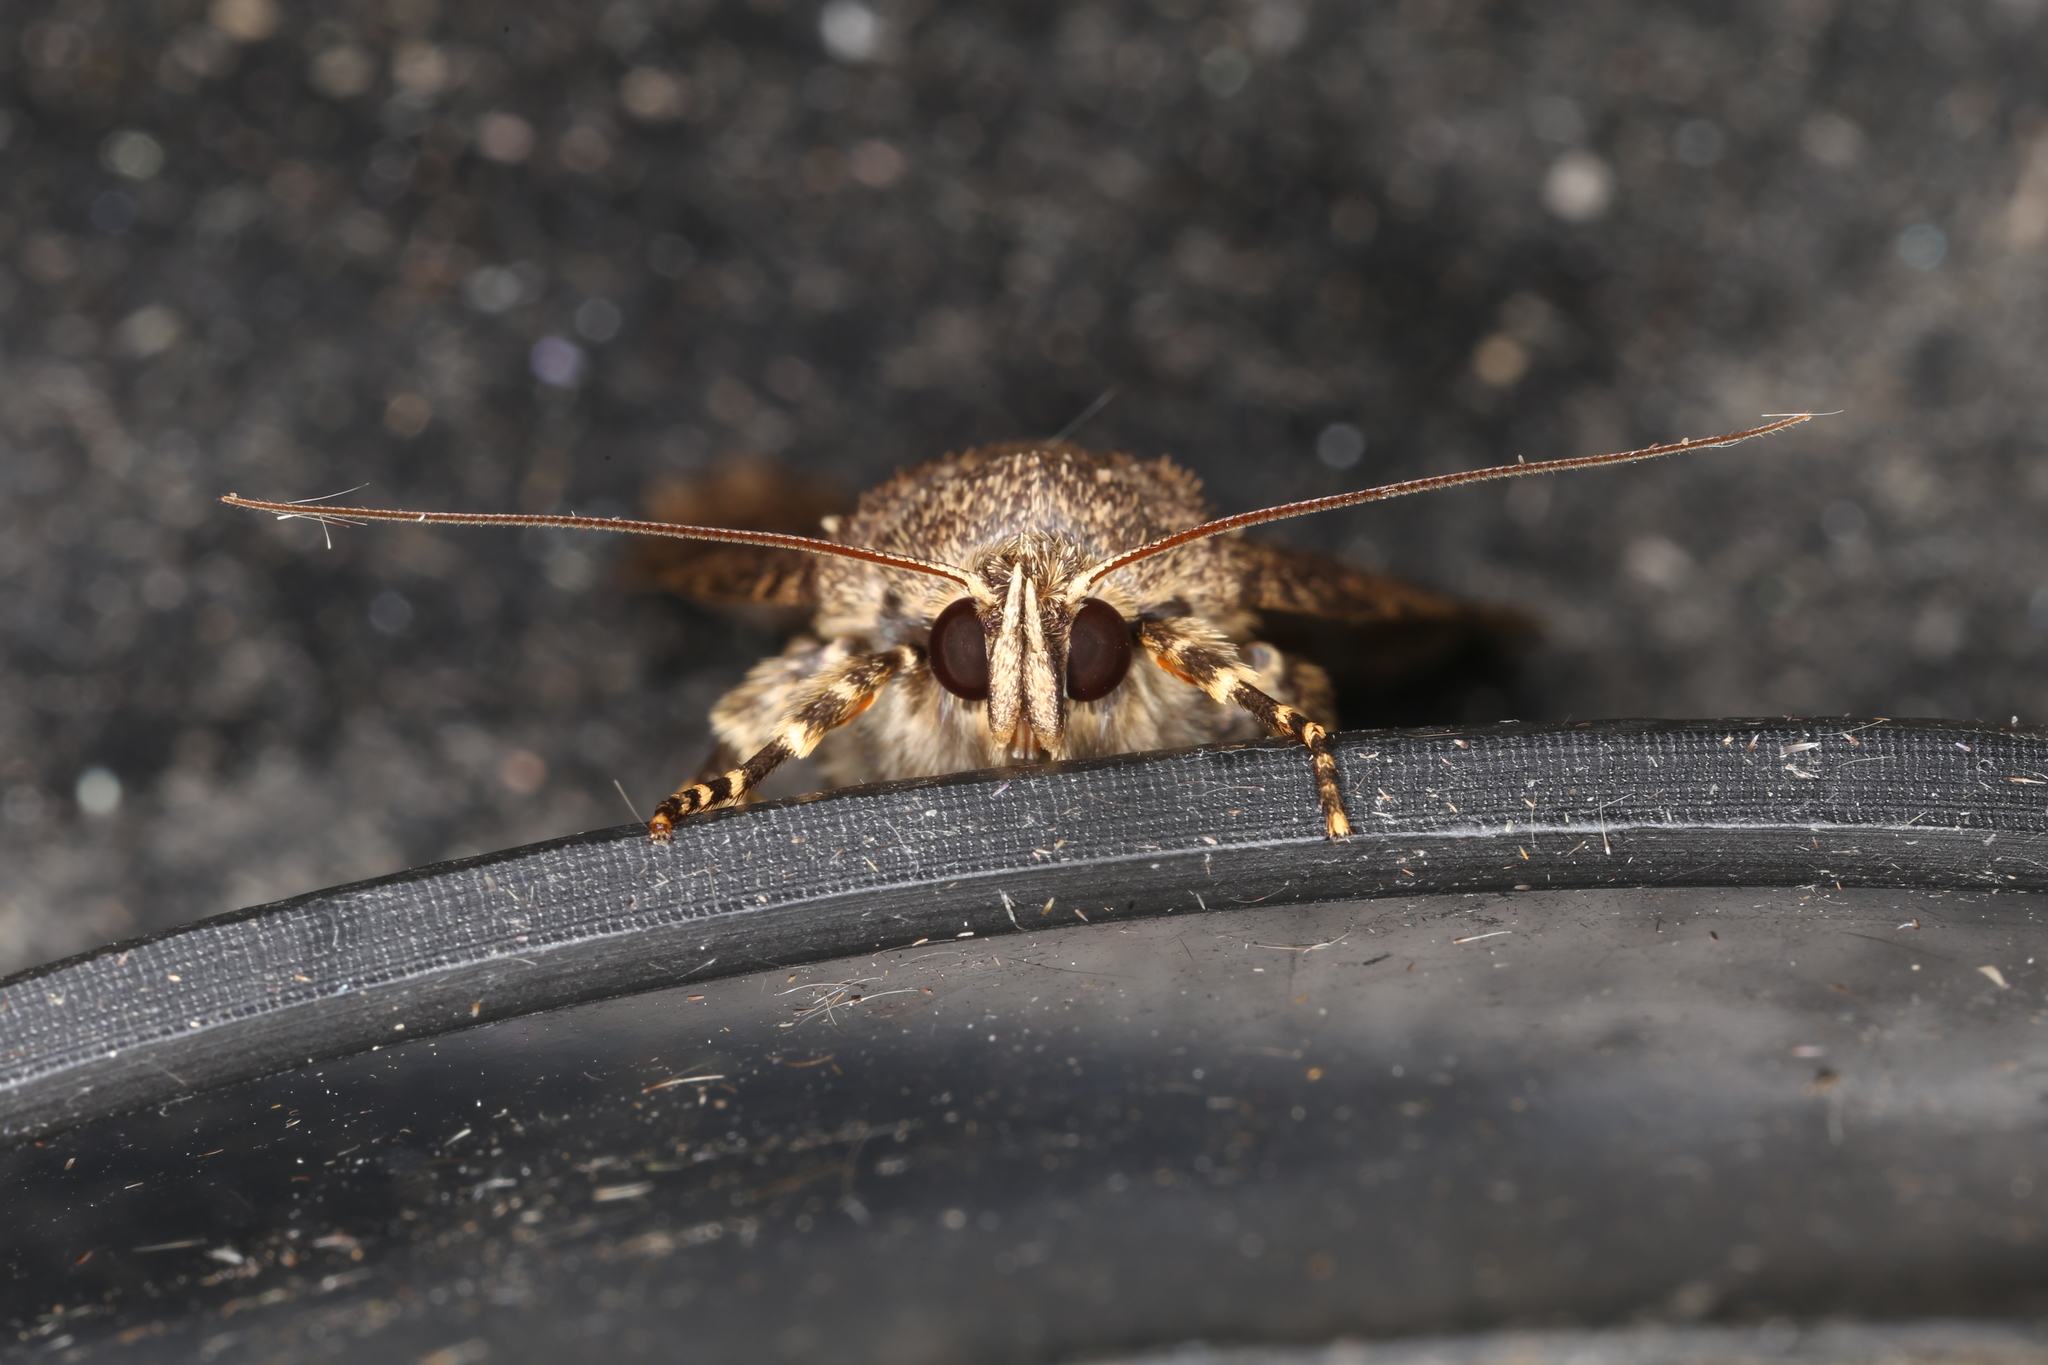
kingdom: Animalia
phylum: Arthropoda
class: Insecta
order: Lepidoptera
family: Noctuidae
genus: Amphipyra
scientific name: Amphipyra pyramidea
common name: Copper underwing
